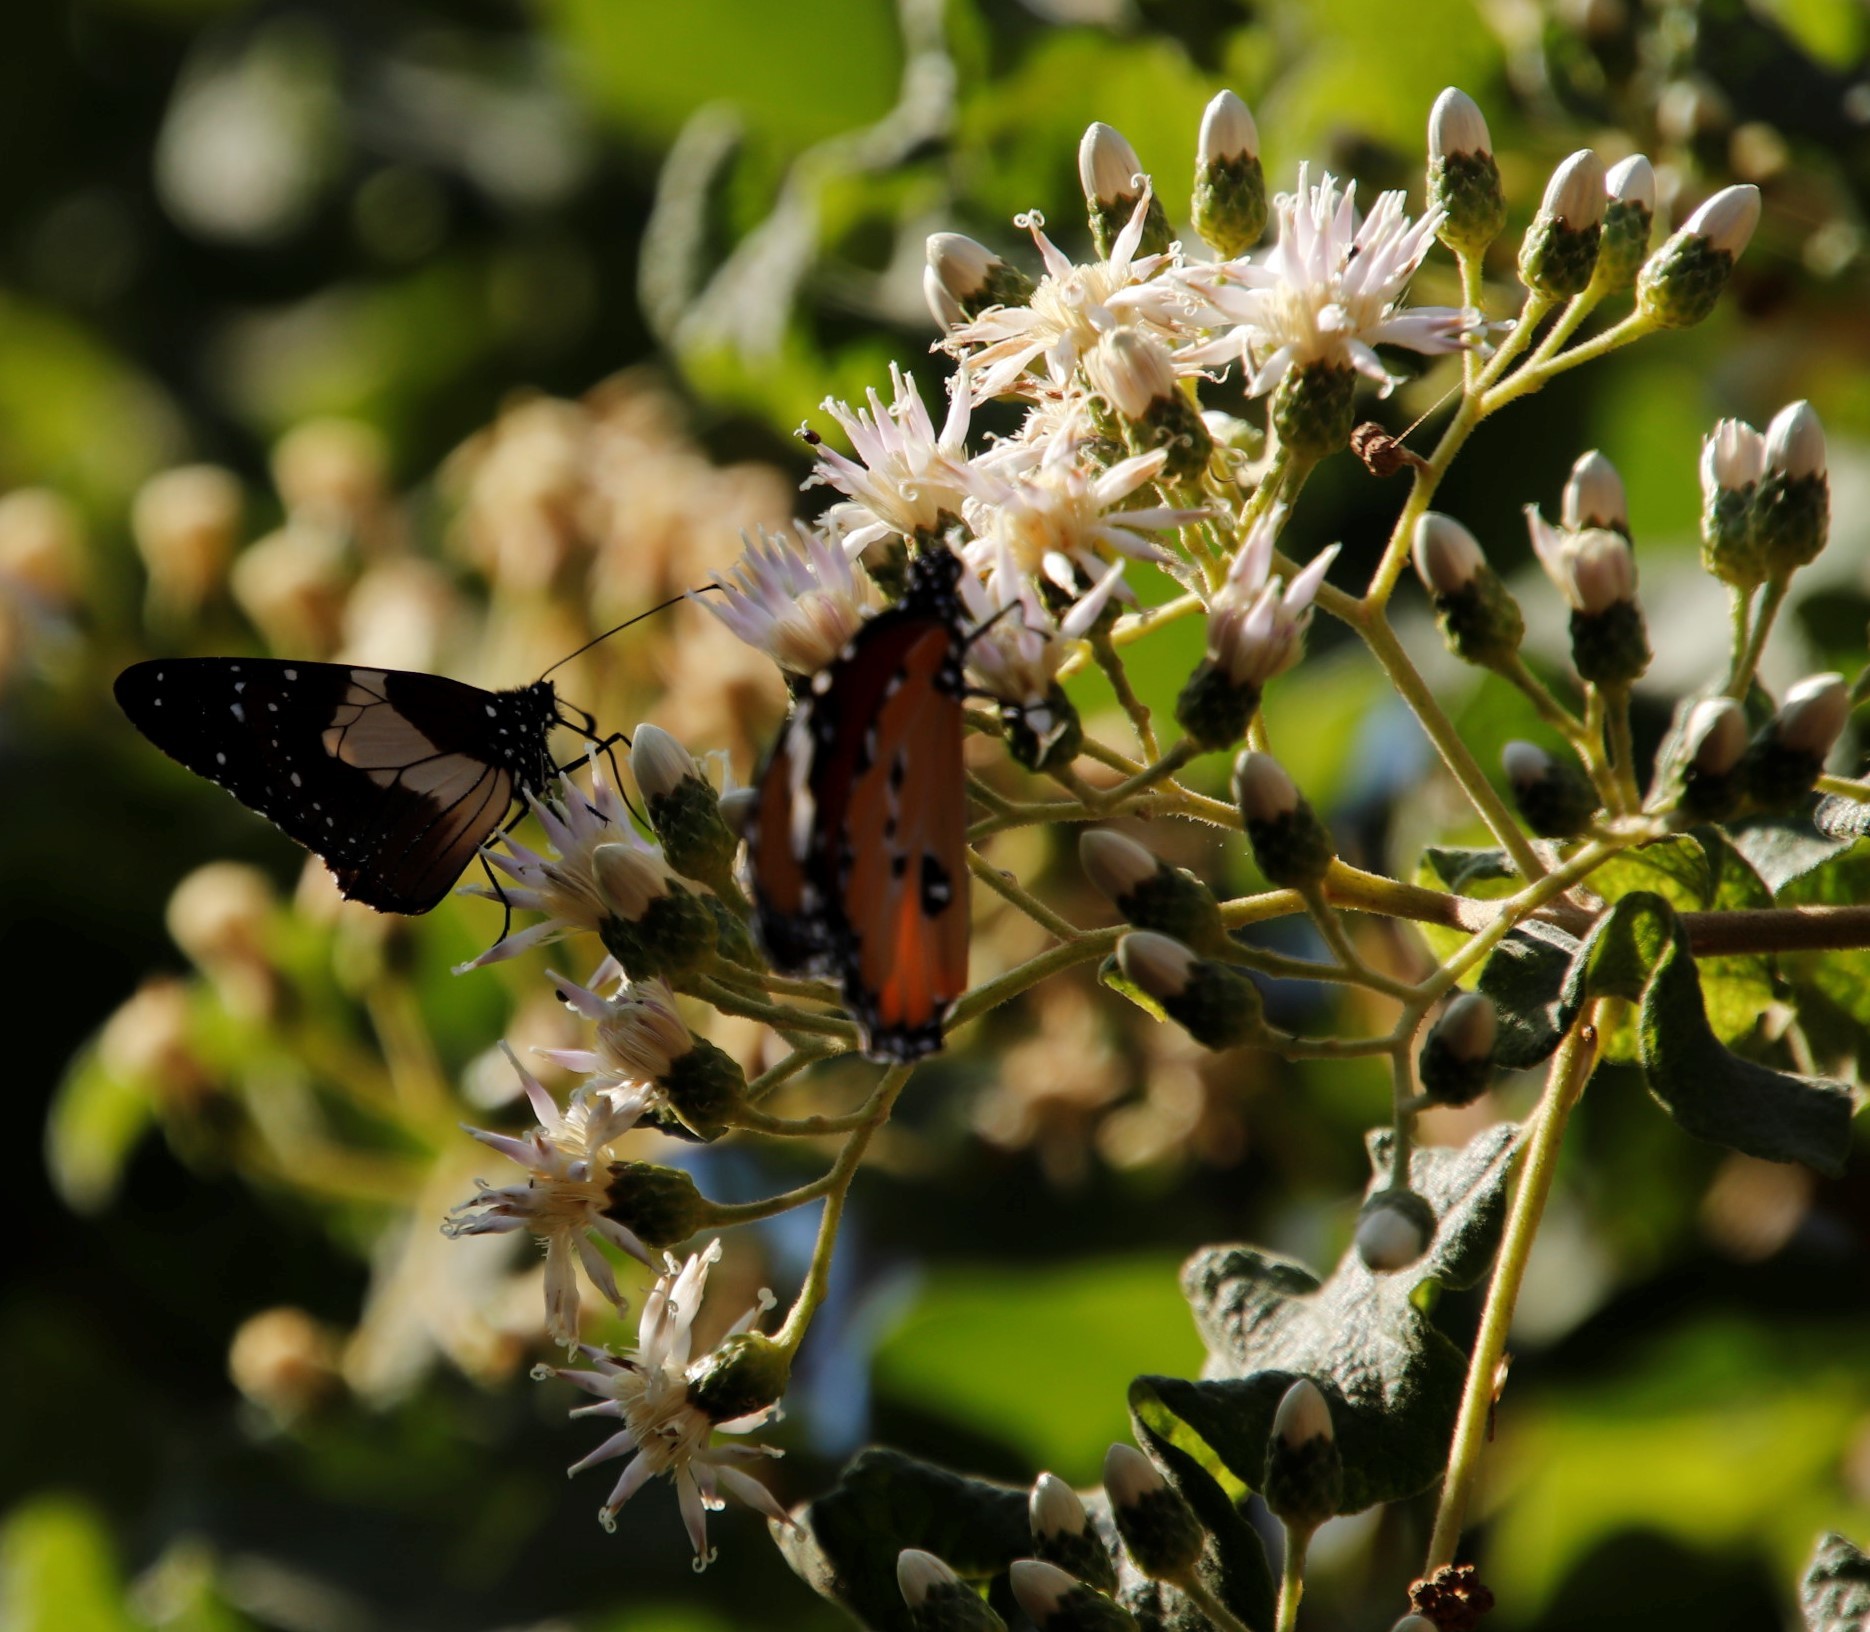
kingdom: Animalia
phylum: Arthropoda
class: Insecta
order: Lepidoptera
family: Nymphalidae
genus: Danaus
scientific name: Danaus chrysippus
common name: Plain tiger
